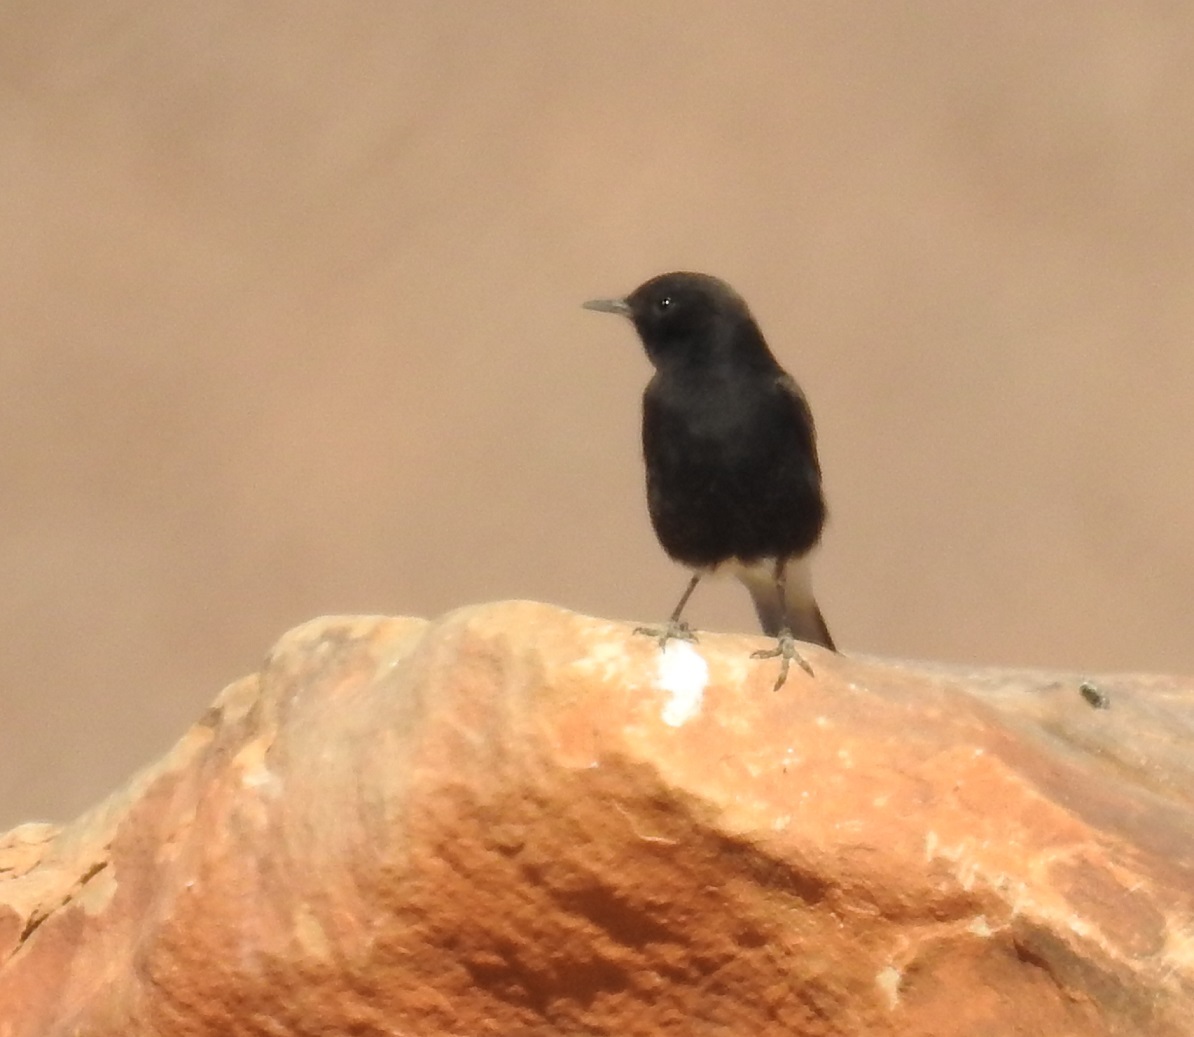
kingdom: Animalia
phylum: Chordata
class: Aves
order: Passeriformes
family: Muscicapidae
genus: Oenanthe
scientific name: Oenanthe leucopyga
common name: White-crowned wheatear
